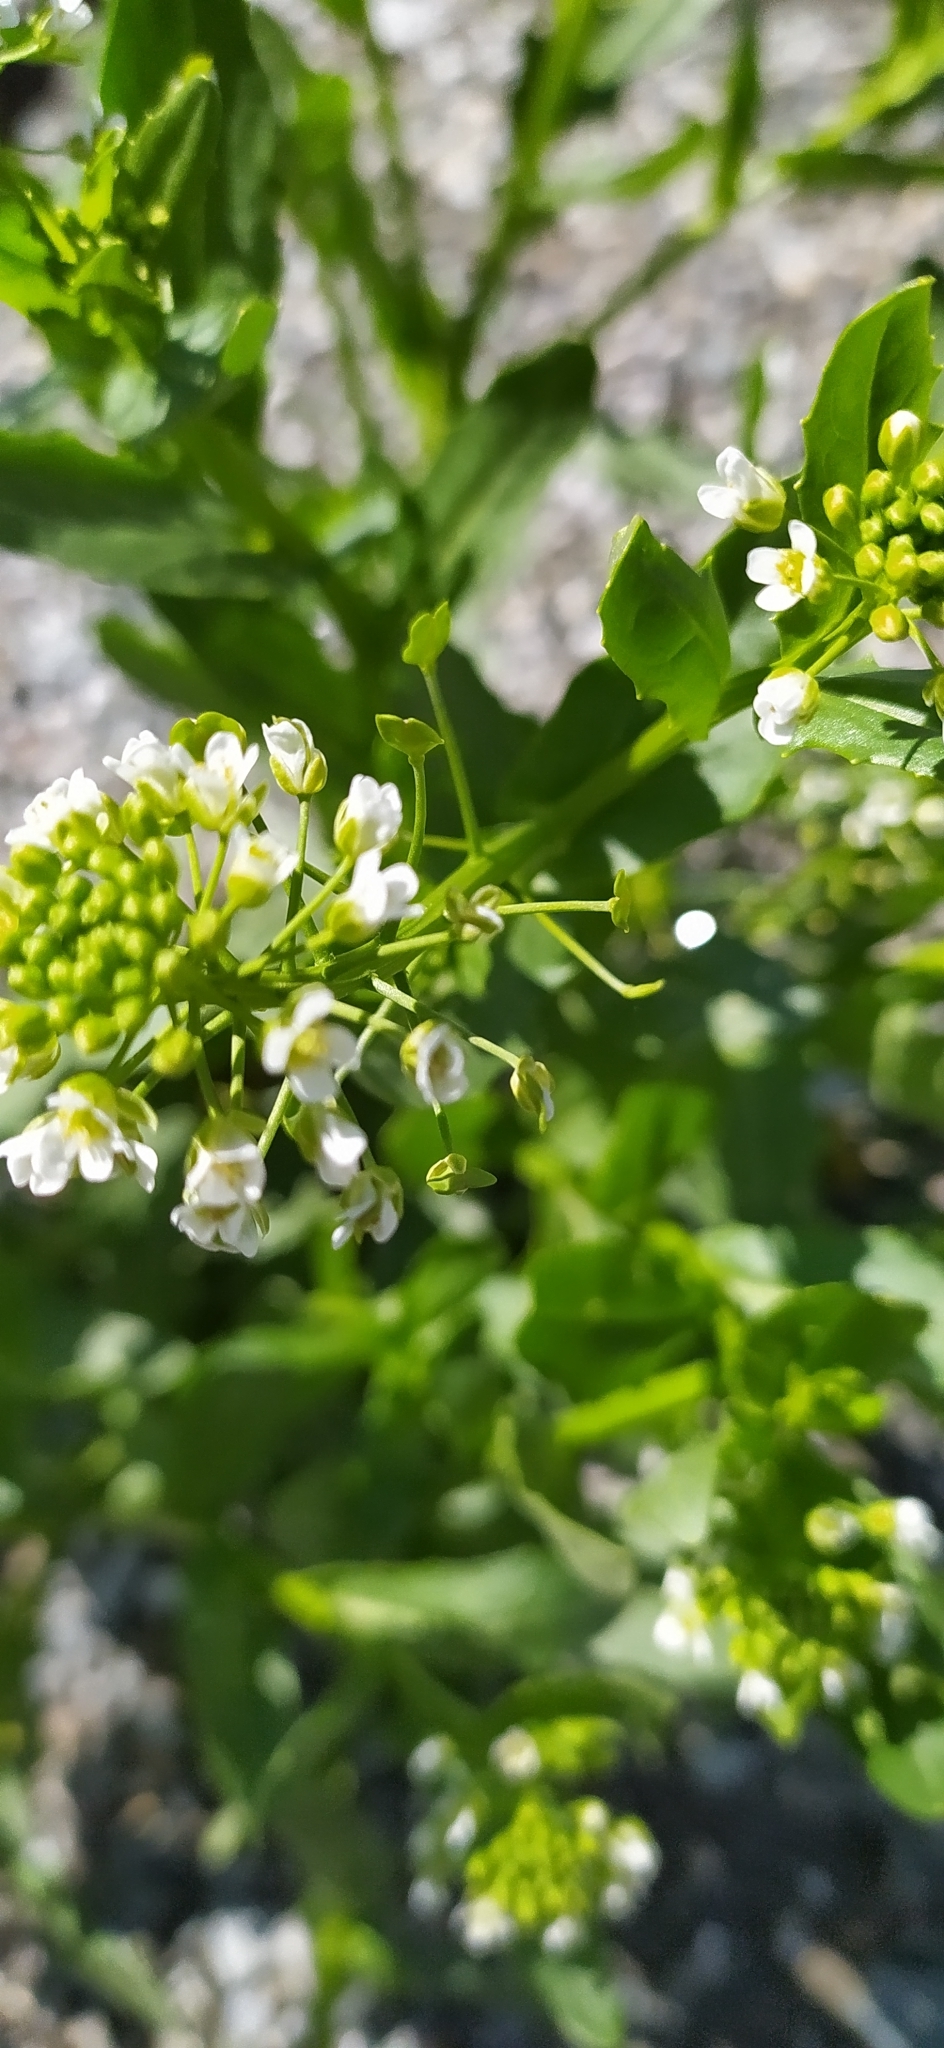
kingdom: Plantae
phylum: Tracheophyta
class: Magnoliopsida
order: Brassicales
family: Brassicaceae
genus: Thlaspi
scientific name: Thlaspi arvense
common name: Field pennycress
